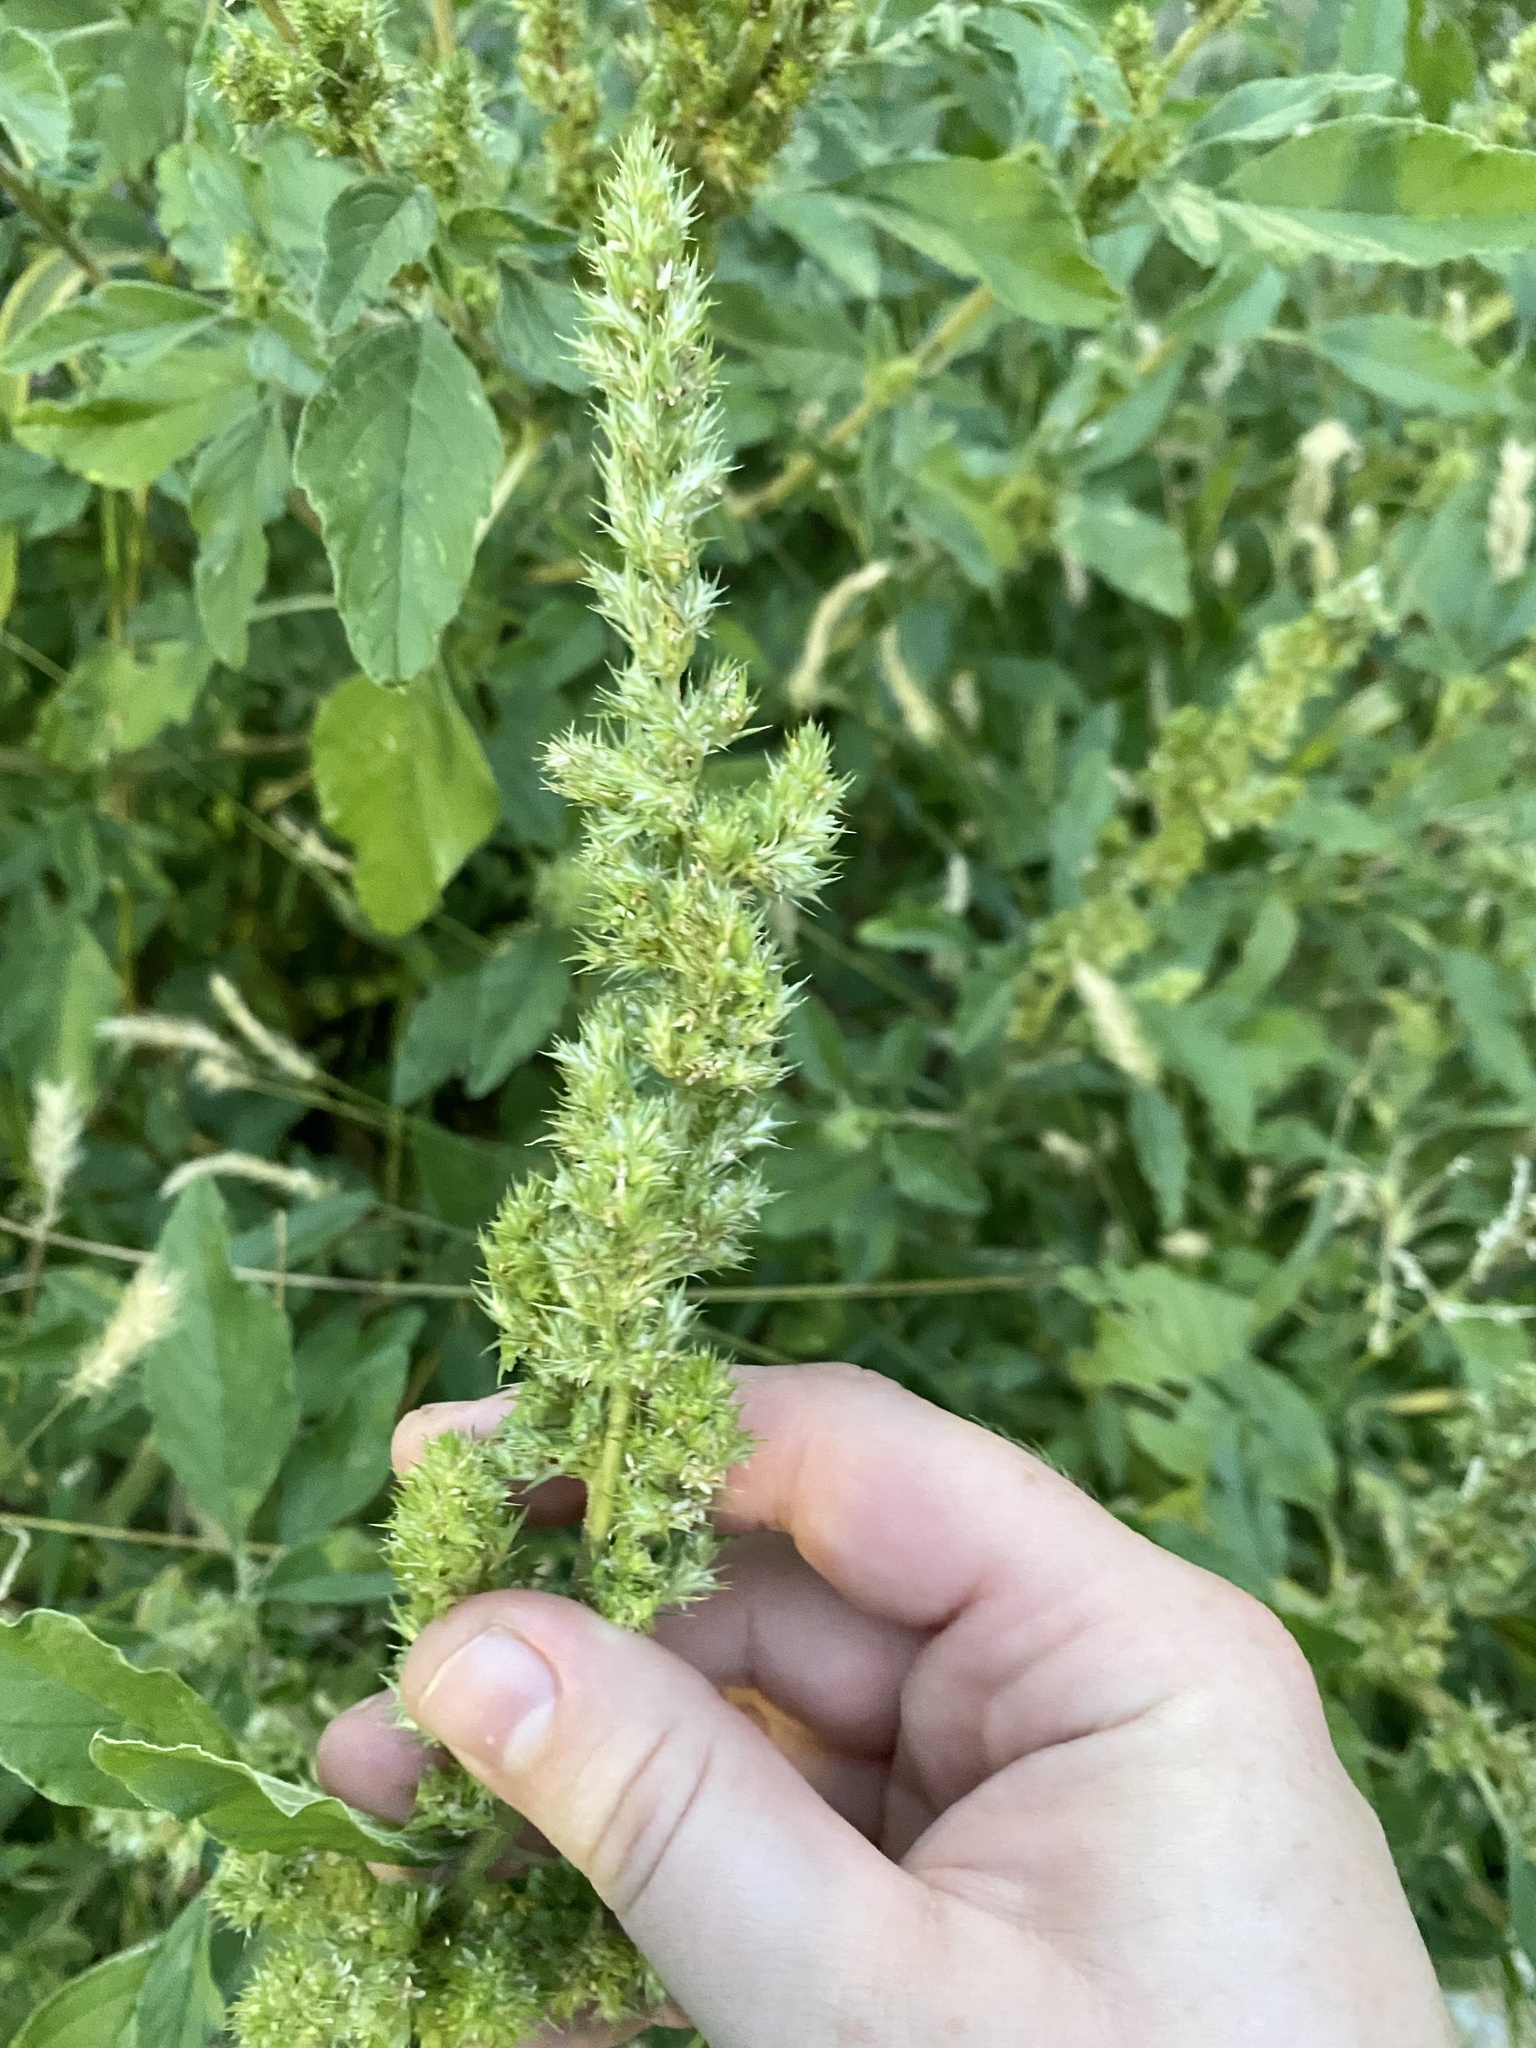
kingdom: Plantae
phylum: Tracheophyta
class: Magnoliopsida
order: Caryophyllales
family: Amaranthaceae
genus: Amaranthus
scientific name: Amaranthus retroflexus
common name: Redroot amaranth
